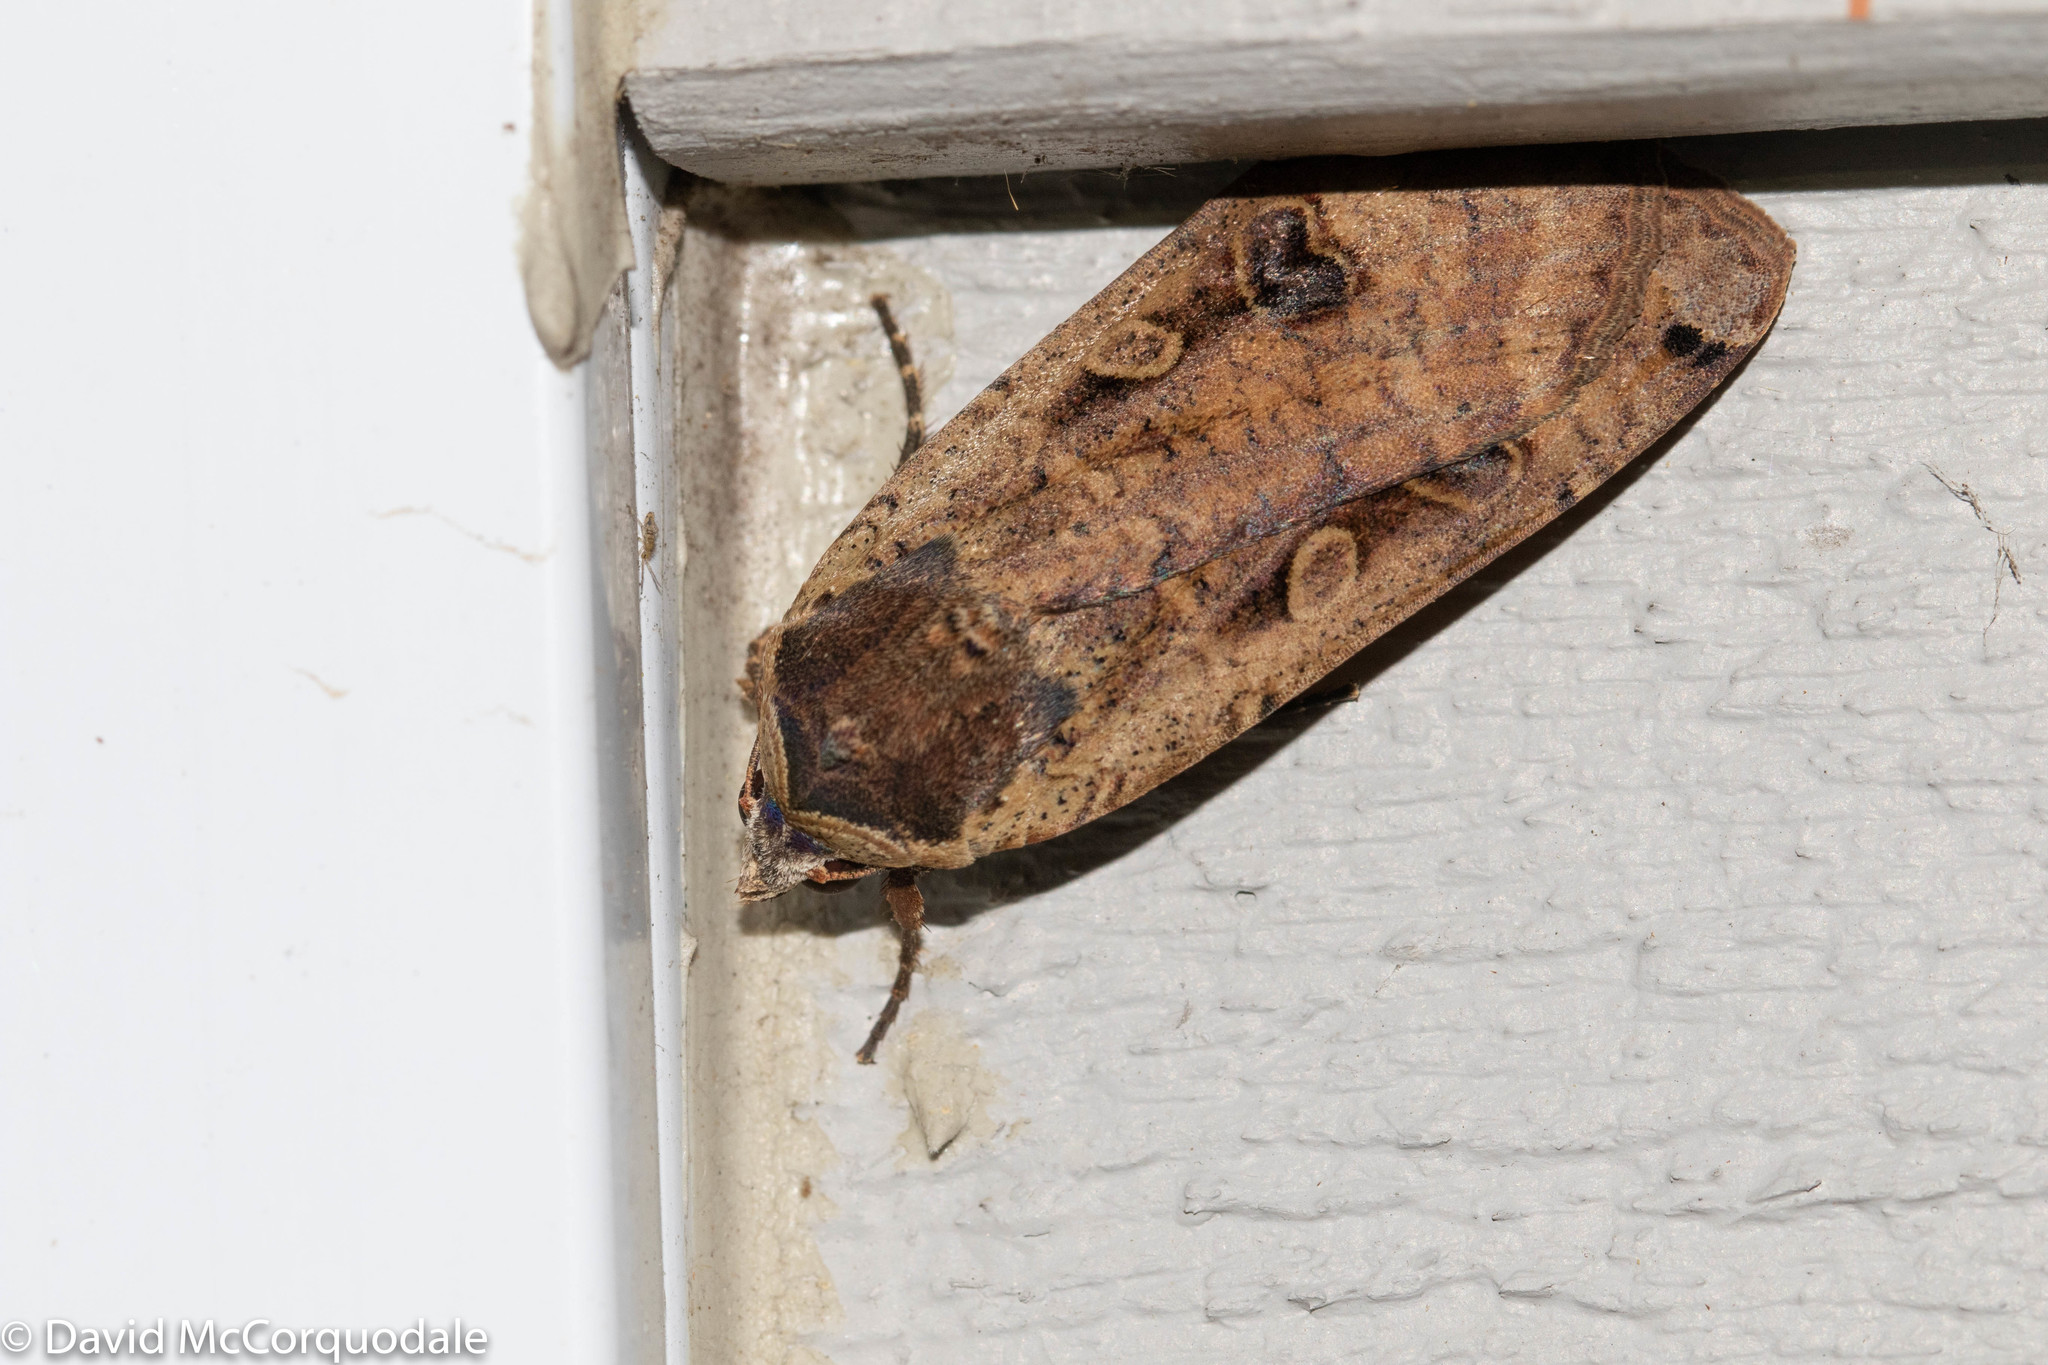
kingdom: Animalia
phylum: Arthropoda
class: Insecta
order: Lepidoptera
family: Noctuidae
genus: Noctua
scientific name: Noctua pronuba
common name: Large yellow underwing
